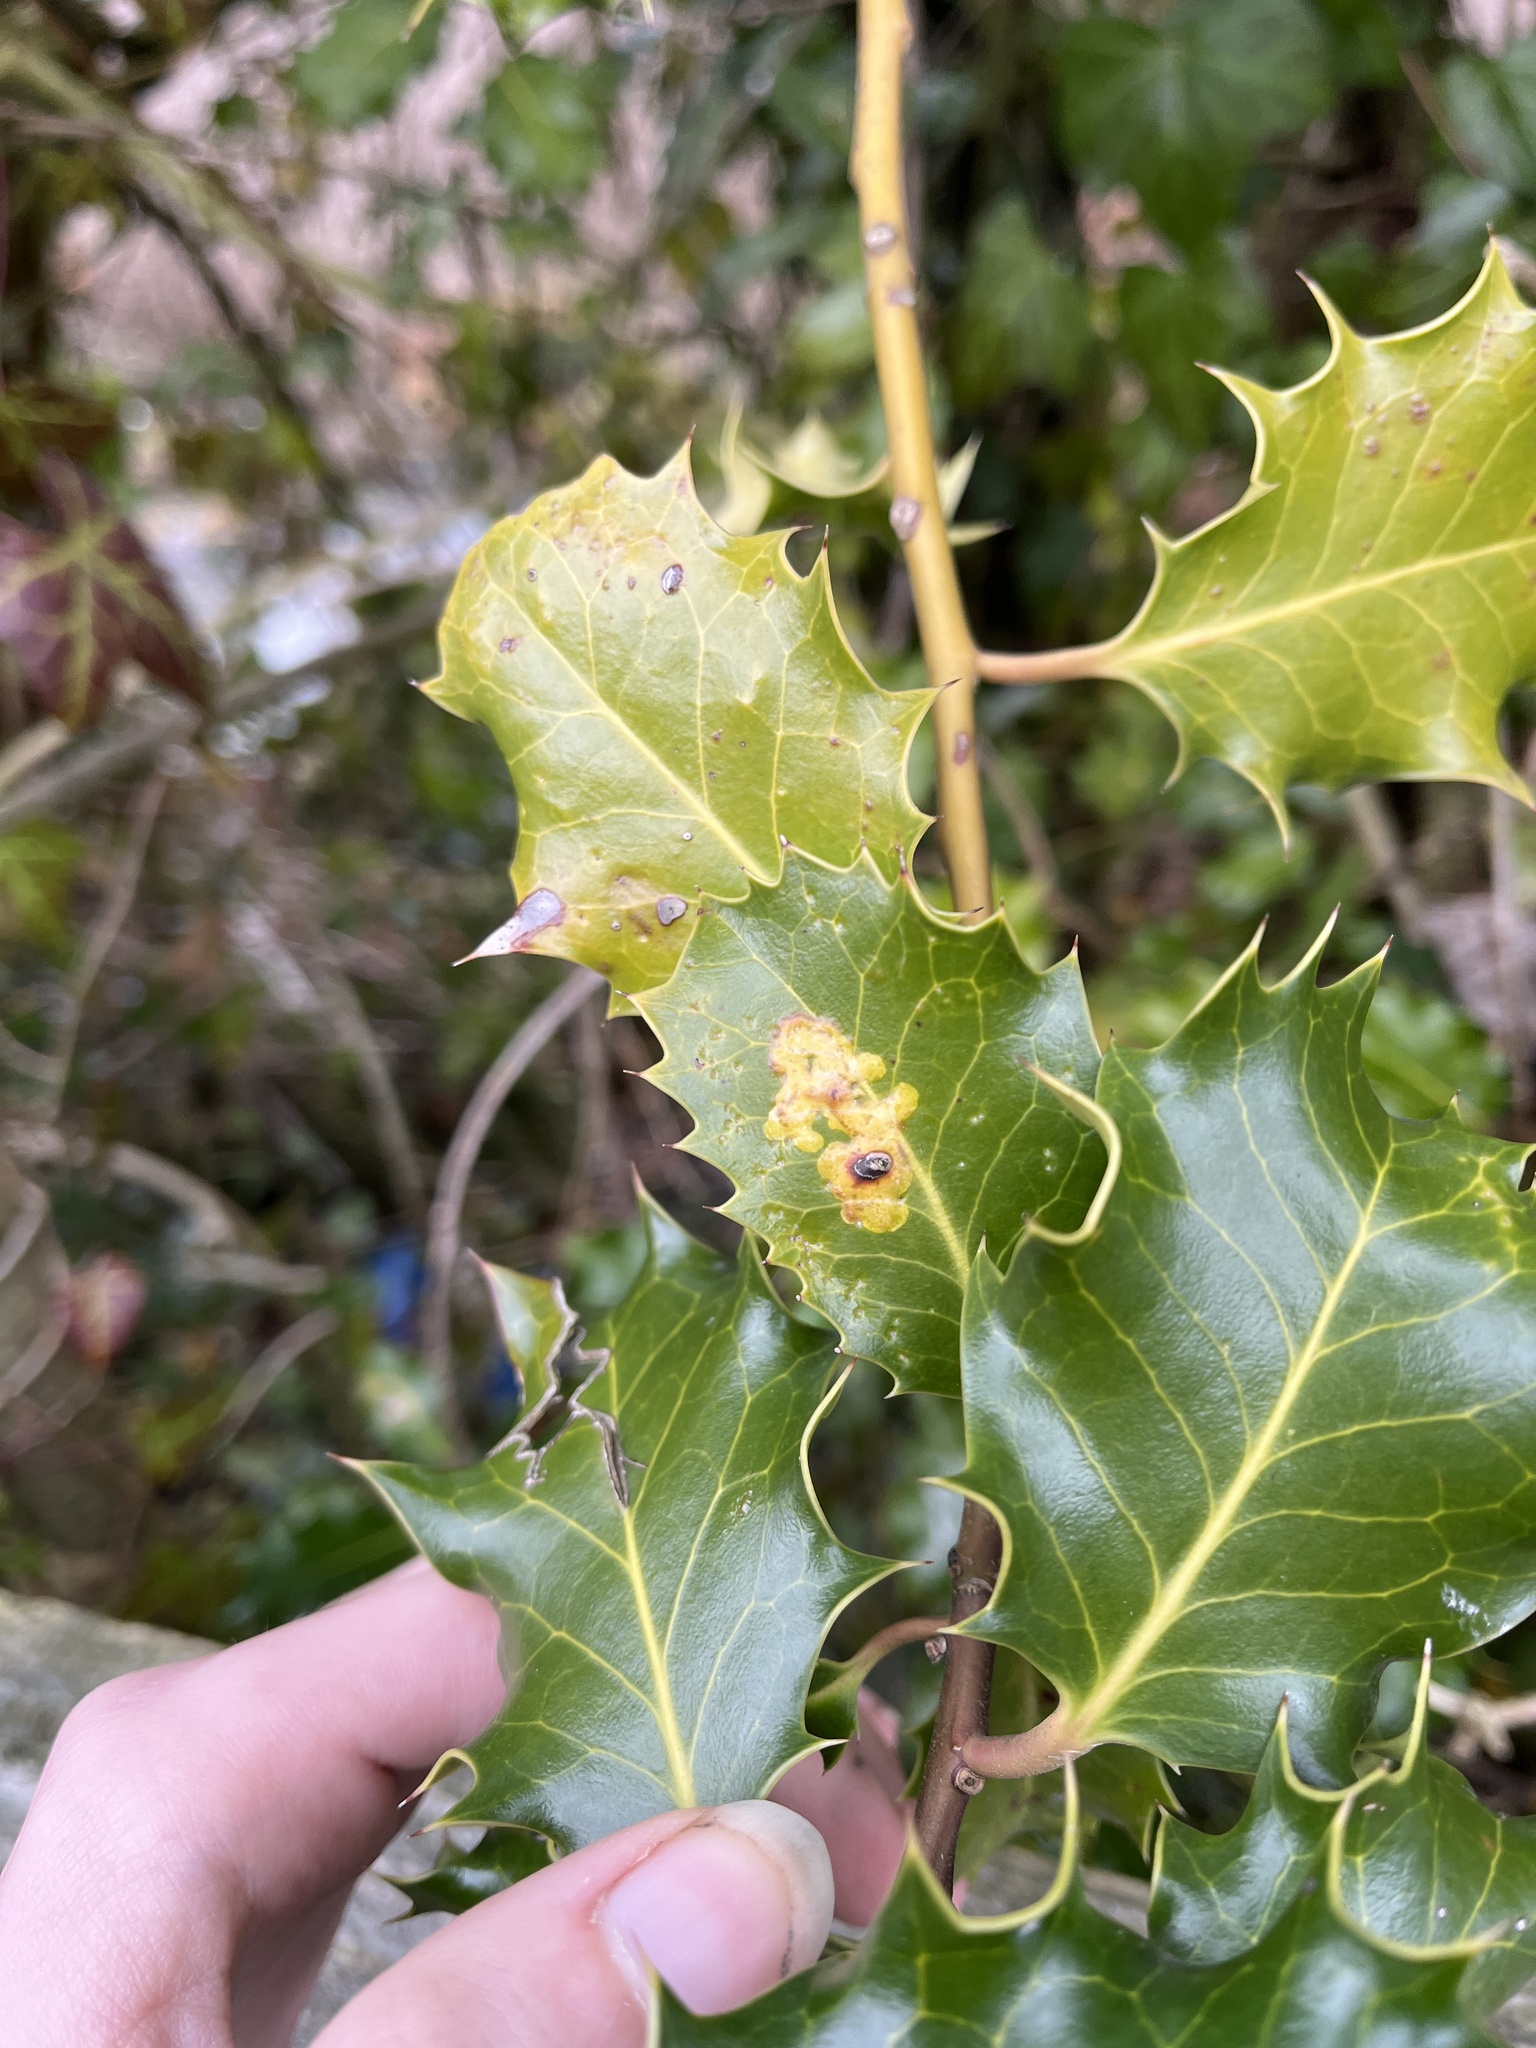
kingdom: Animalia
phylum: Arthropoda
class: Insecta
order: Diptera
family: Agromyzidae
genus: Phytomyza
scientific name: Phytomyza ilicis
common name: Holly leafminer
